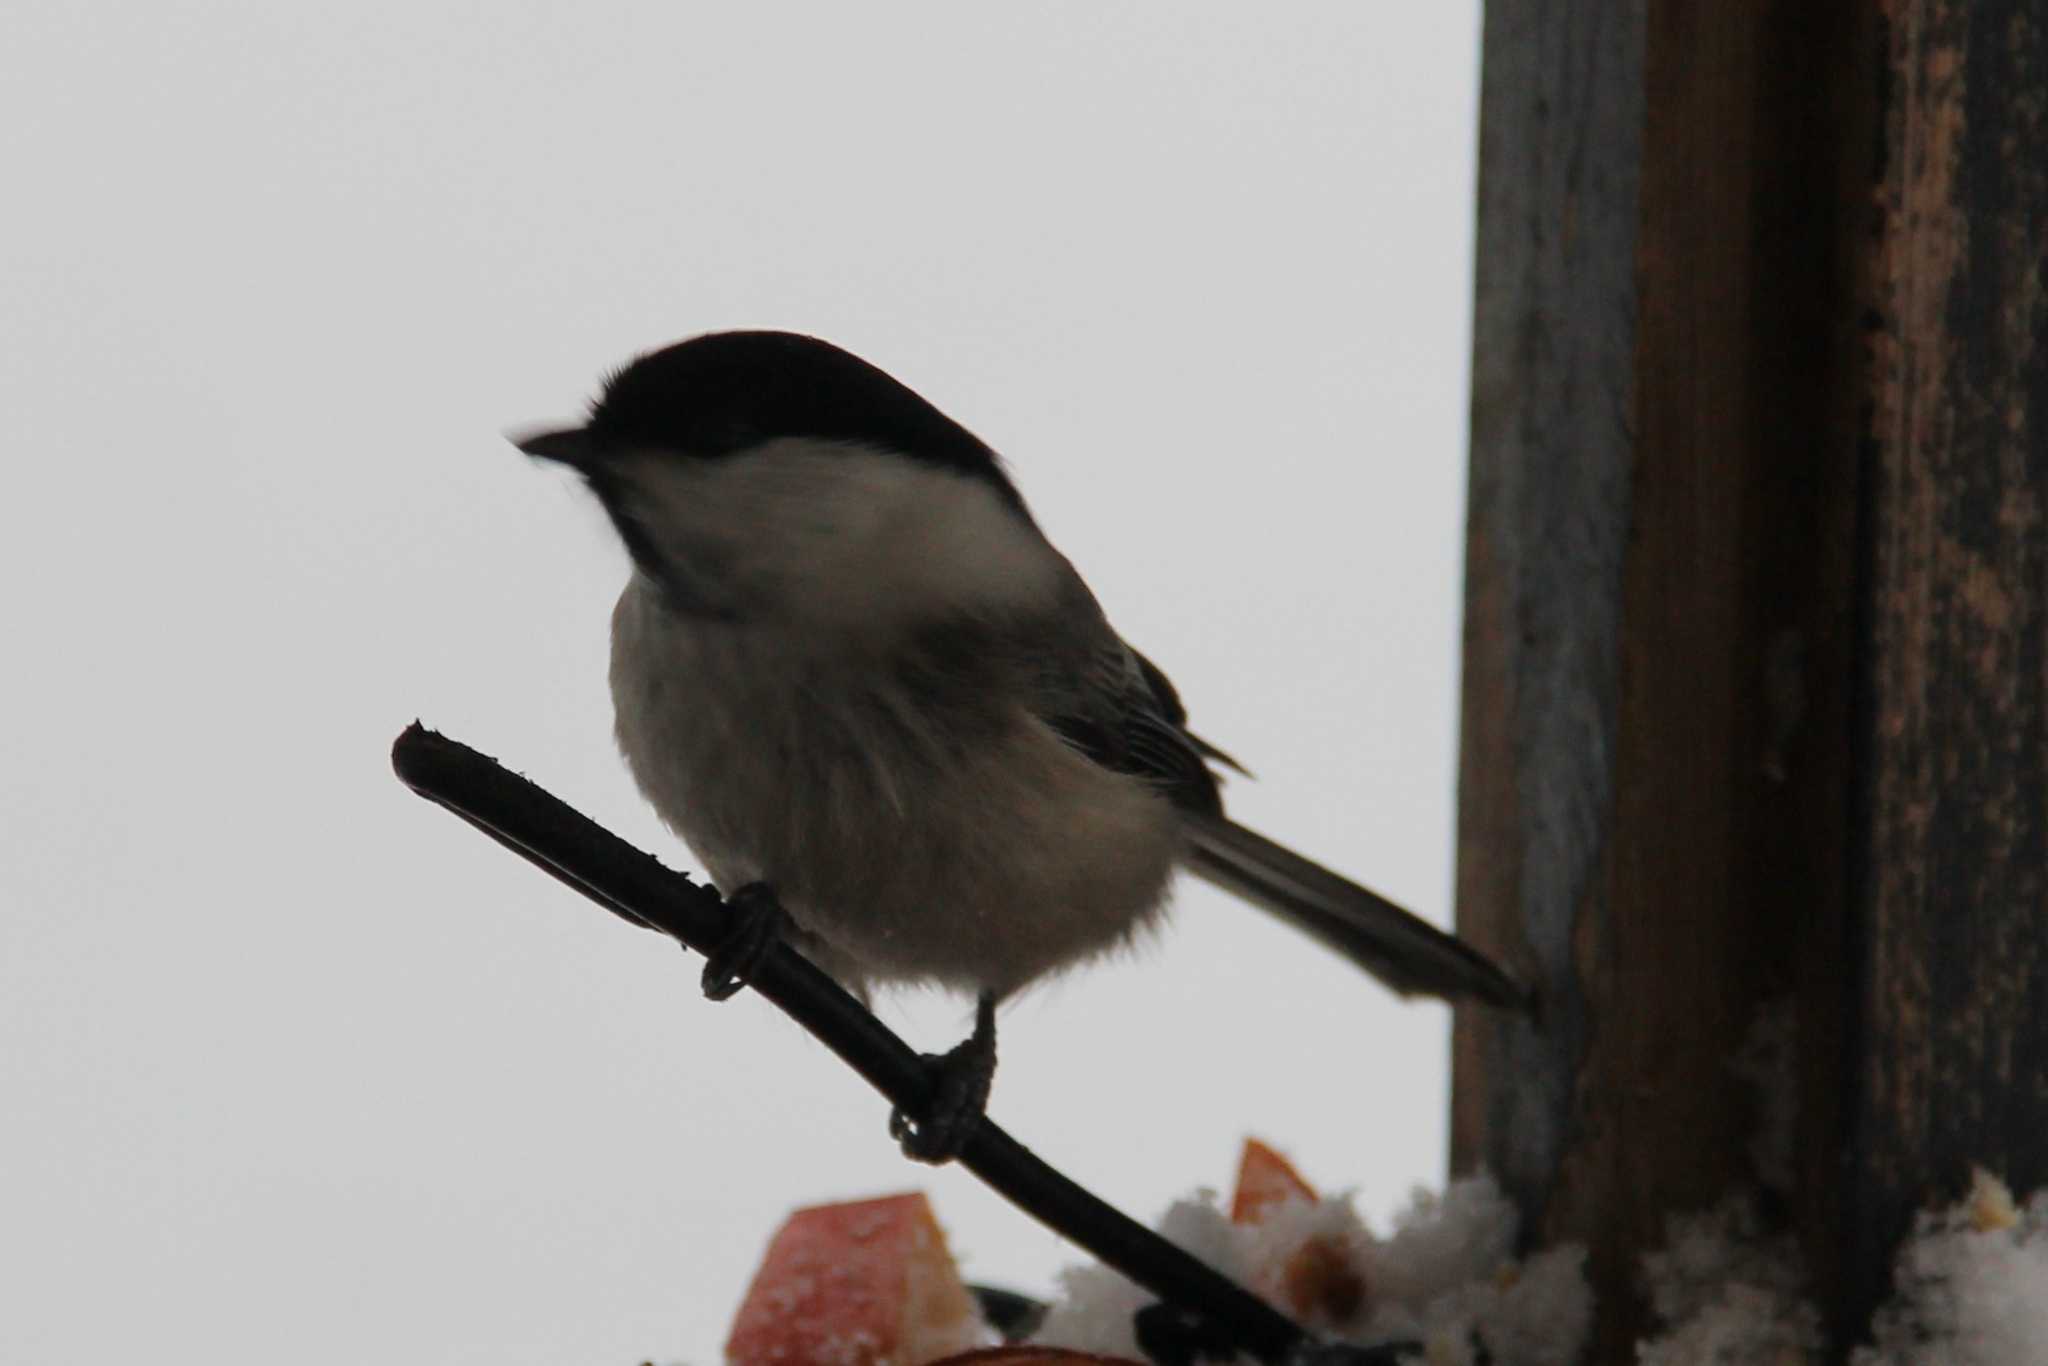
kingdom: Animalia
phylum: Chordata
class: Aves
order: Passeriformes
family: Paridae
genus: Poecile
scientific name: Poecile montanus
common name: Willow tit
